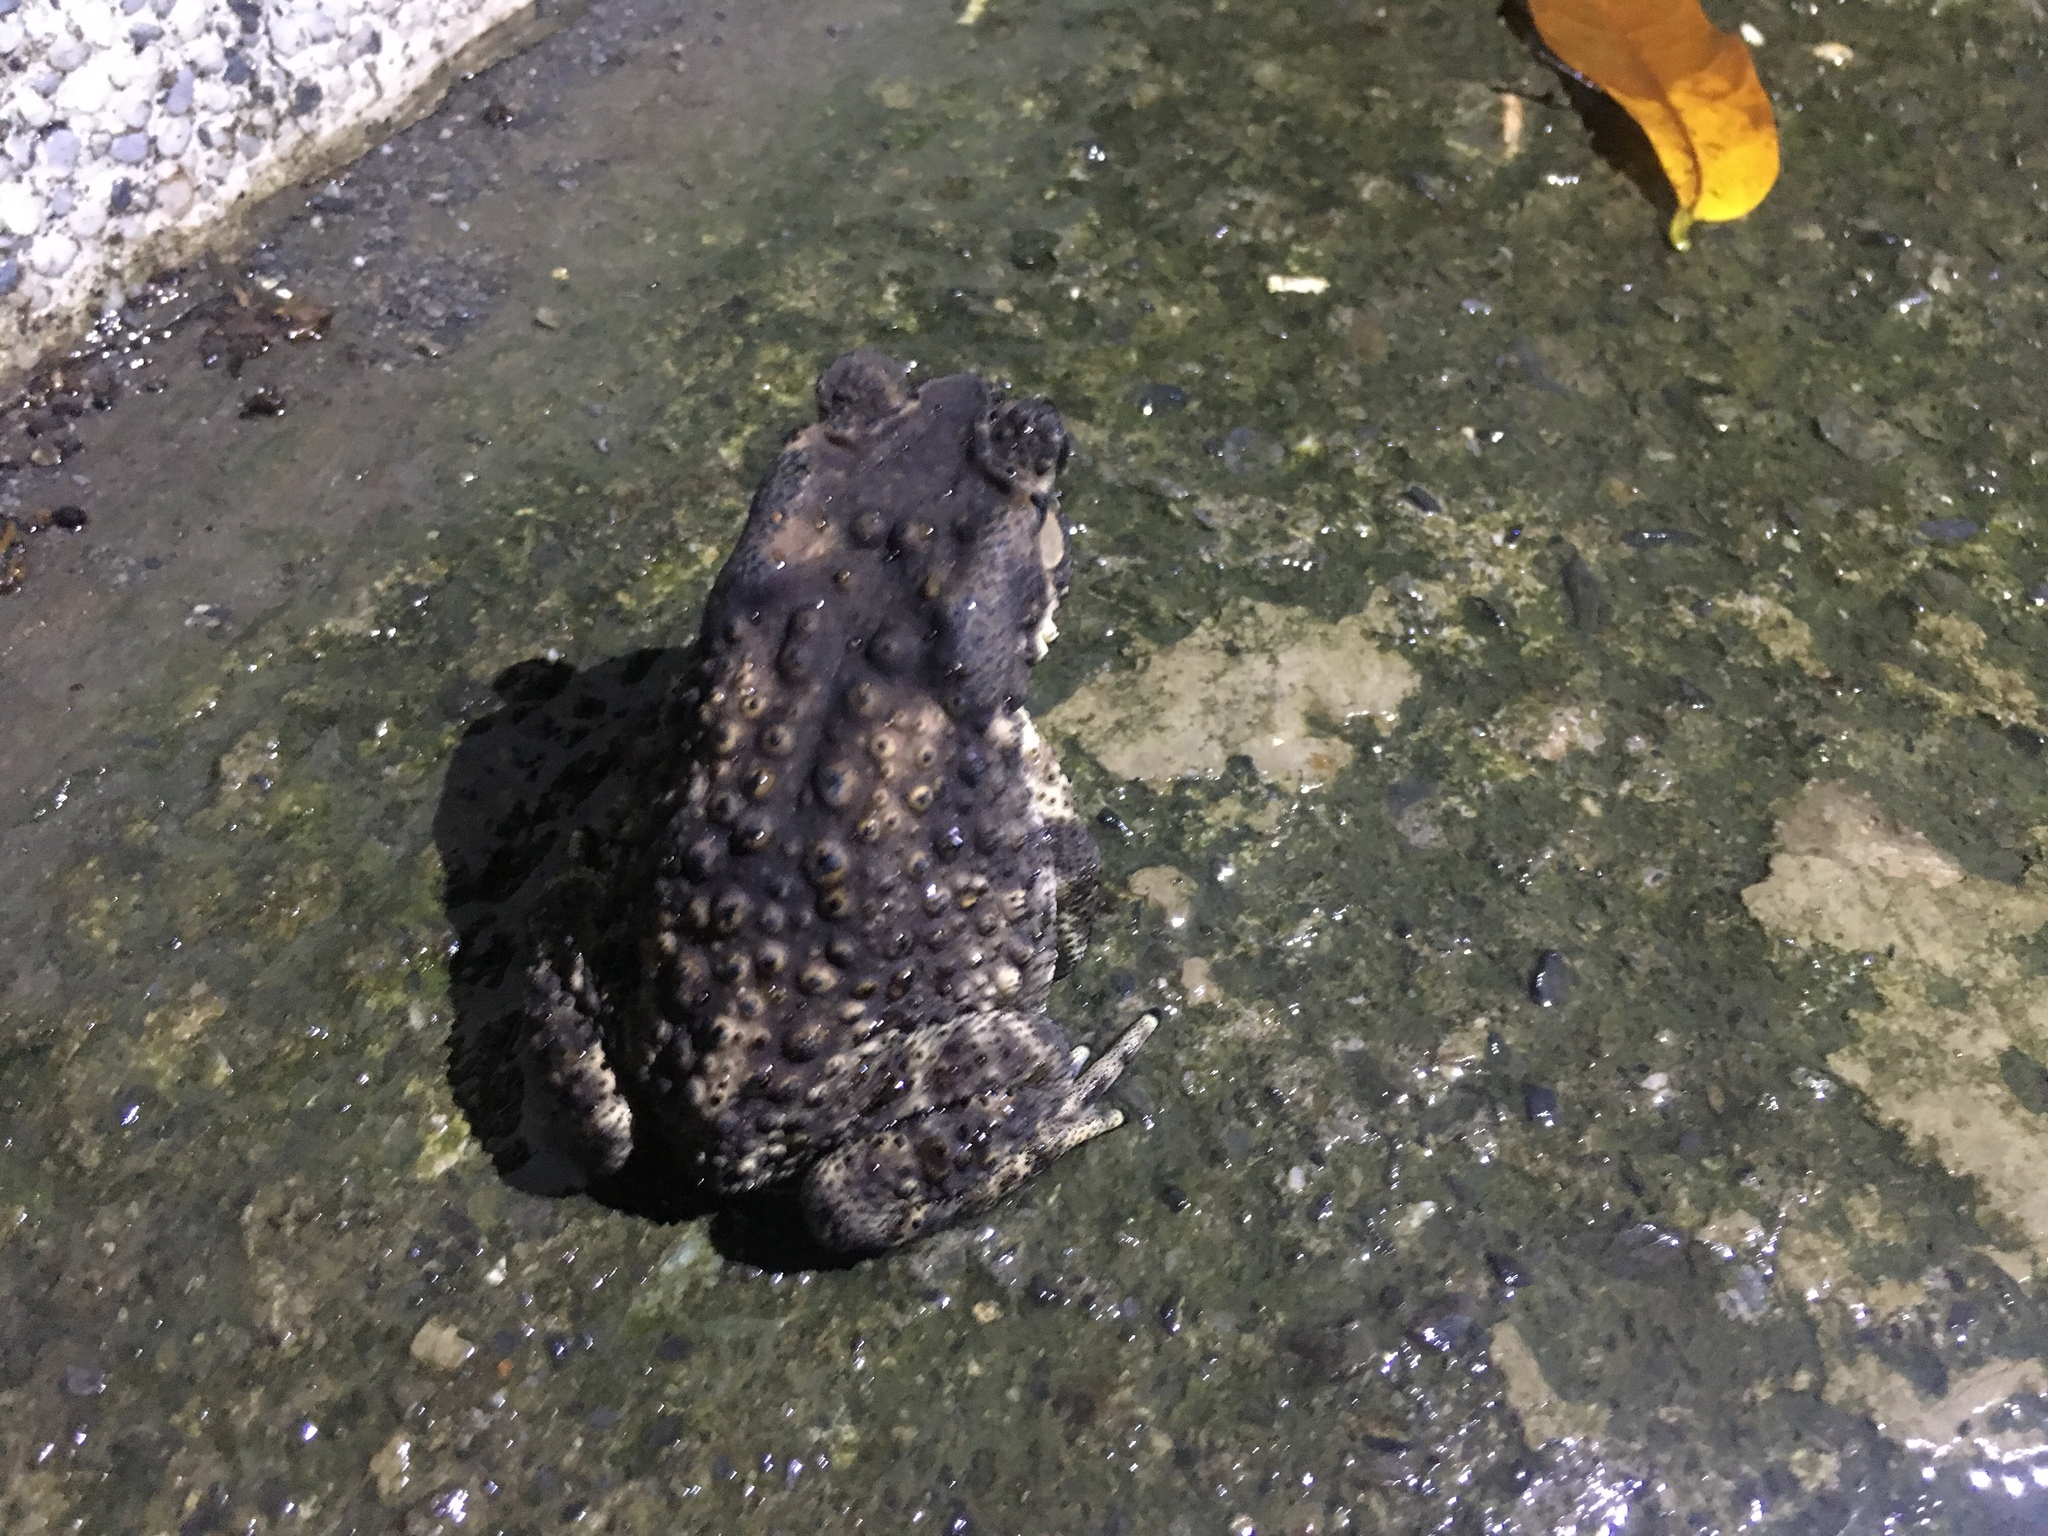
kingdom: Animalia
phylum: Chordata
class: Amphibia
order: Anura
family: Bufonidae
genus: Duttaphrynus
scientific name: Duttaphrynus melanostictus
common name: Common sunda toad
